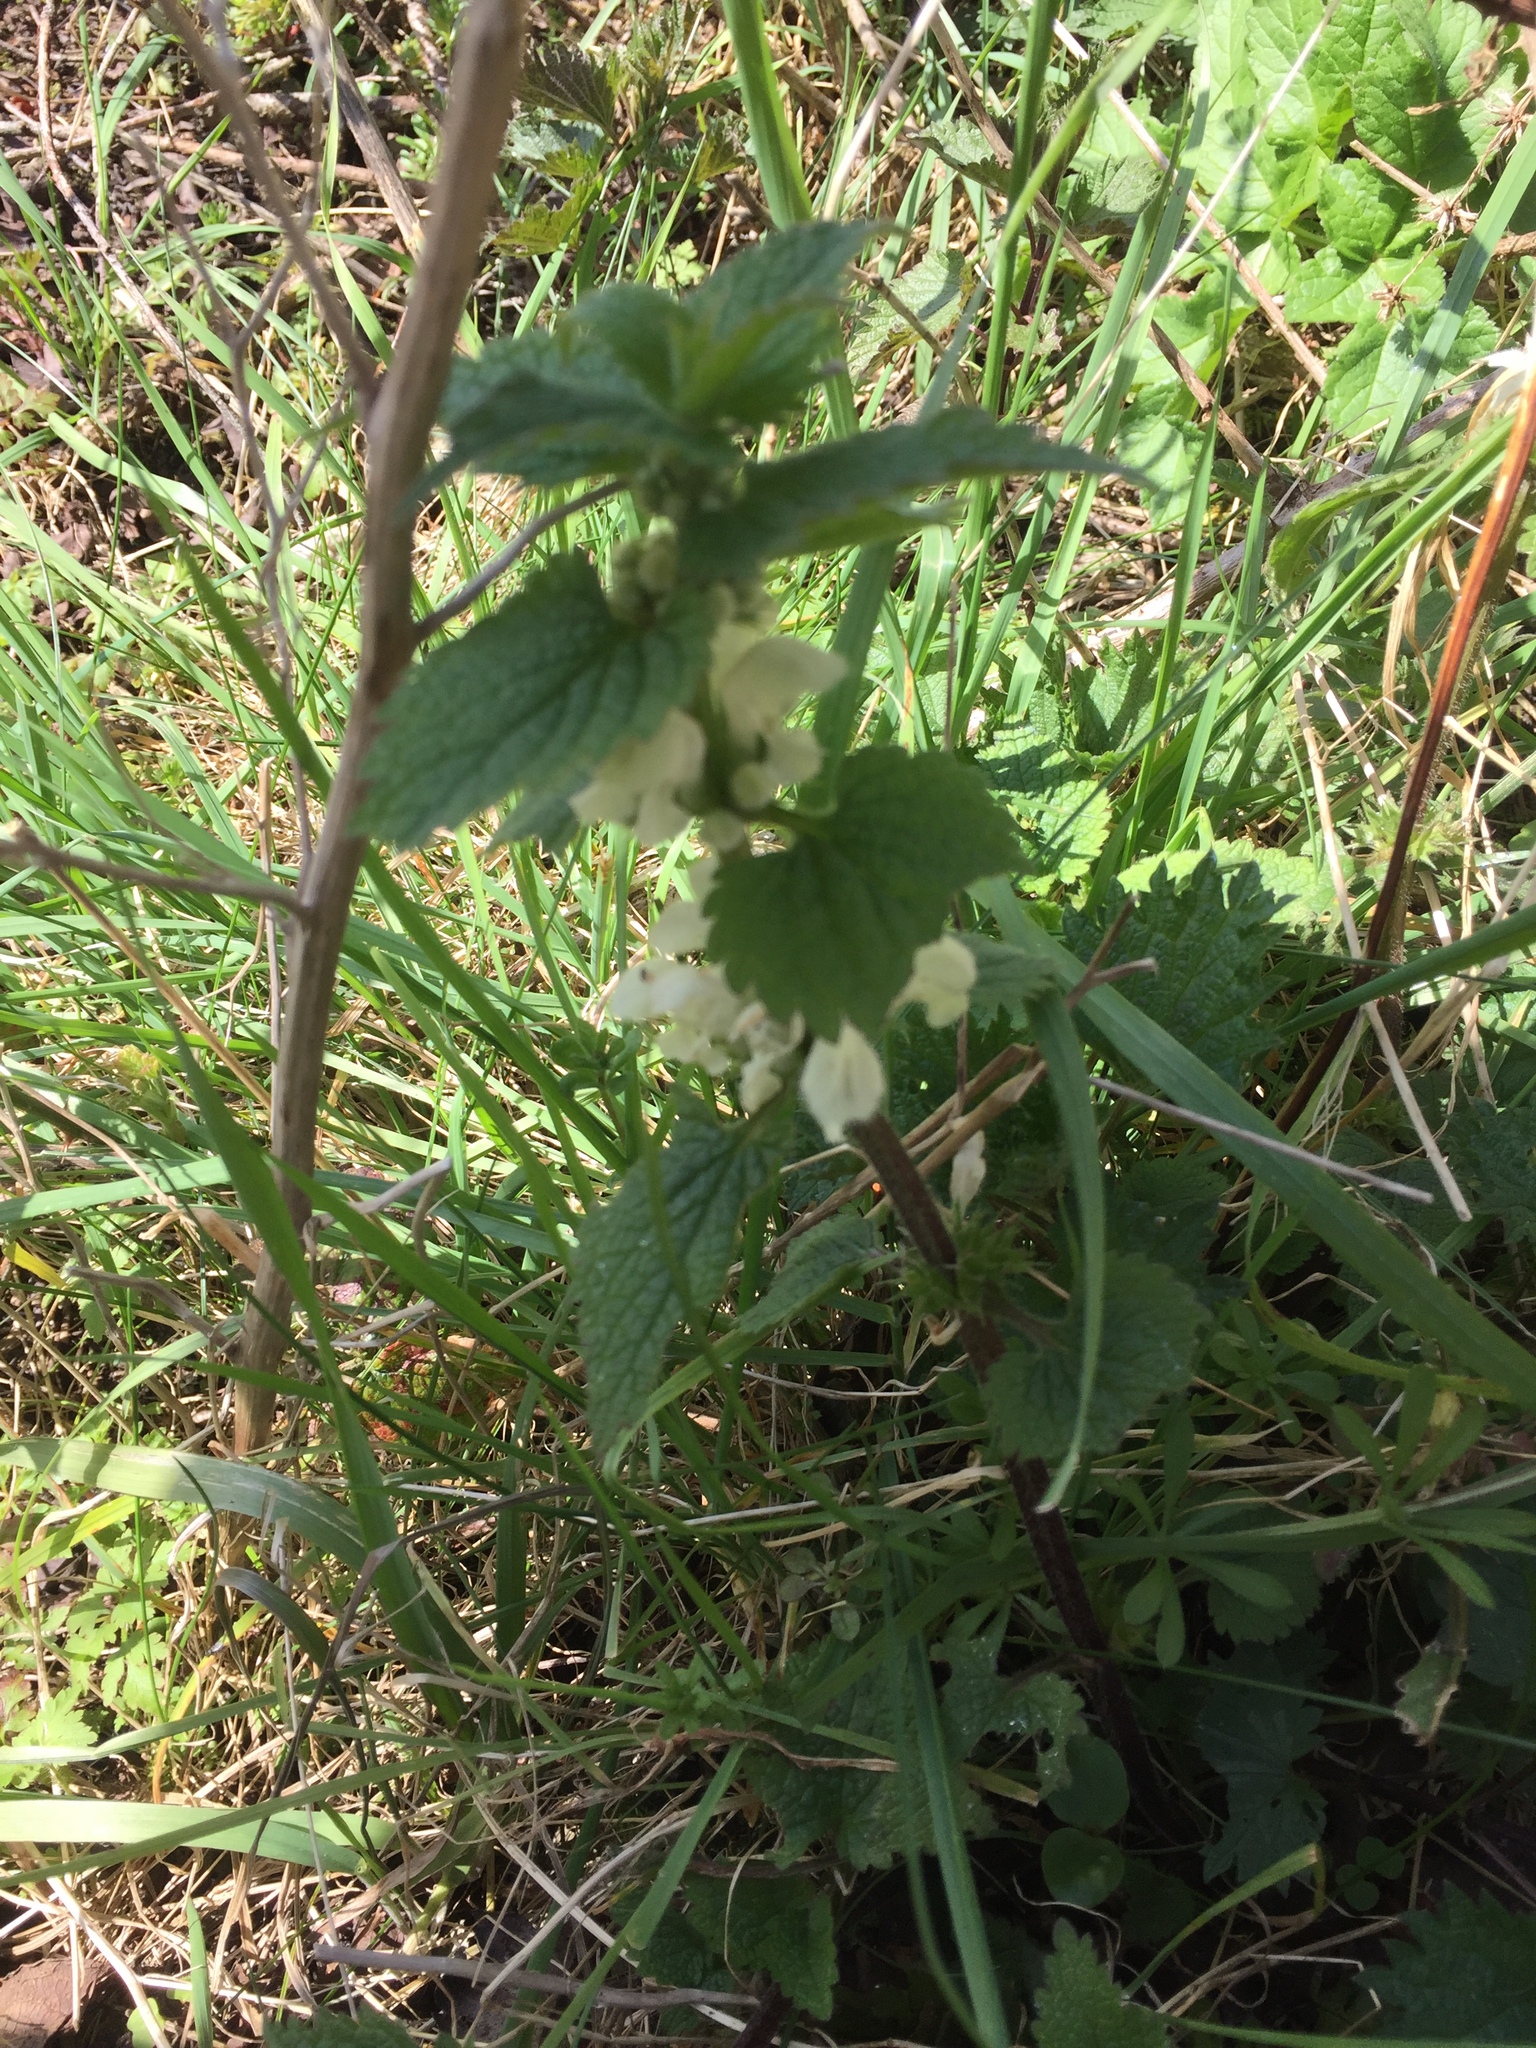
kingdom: Plantae
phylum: Tracheophyta
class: Magnoliopsida
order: Lamiales
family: Lamiaceae
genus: Lamium
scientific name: Lamium album
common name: White dead-nettle
